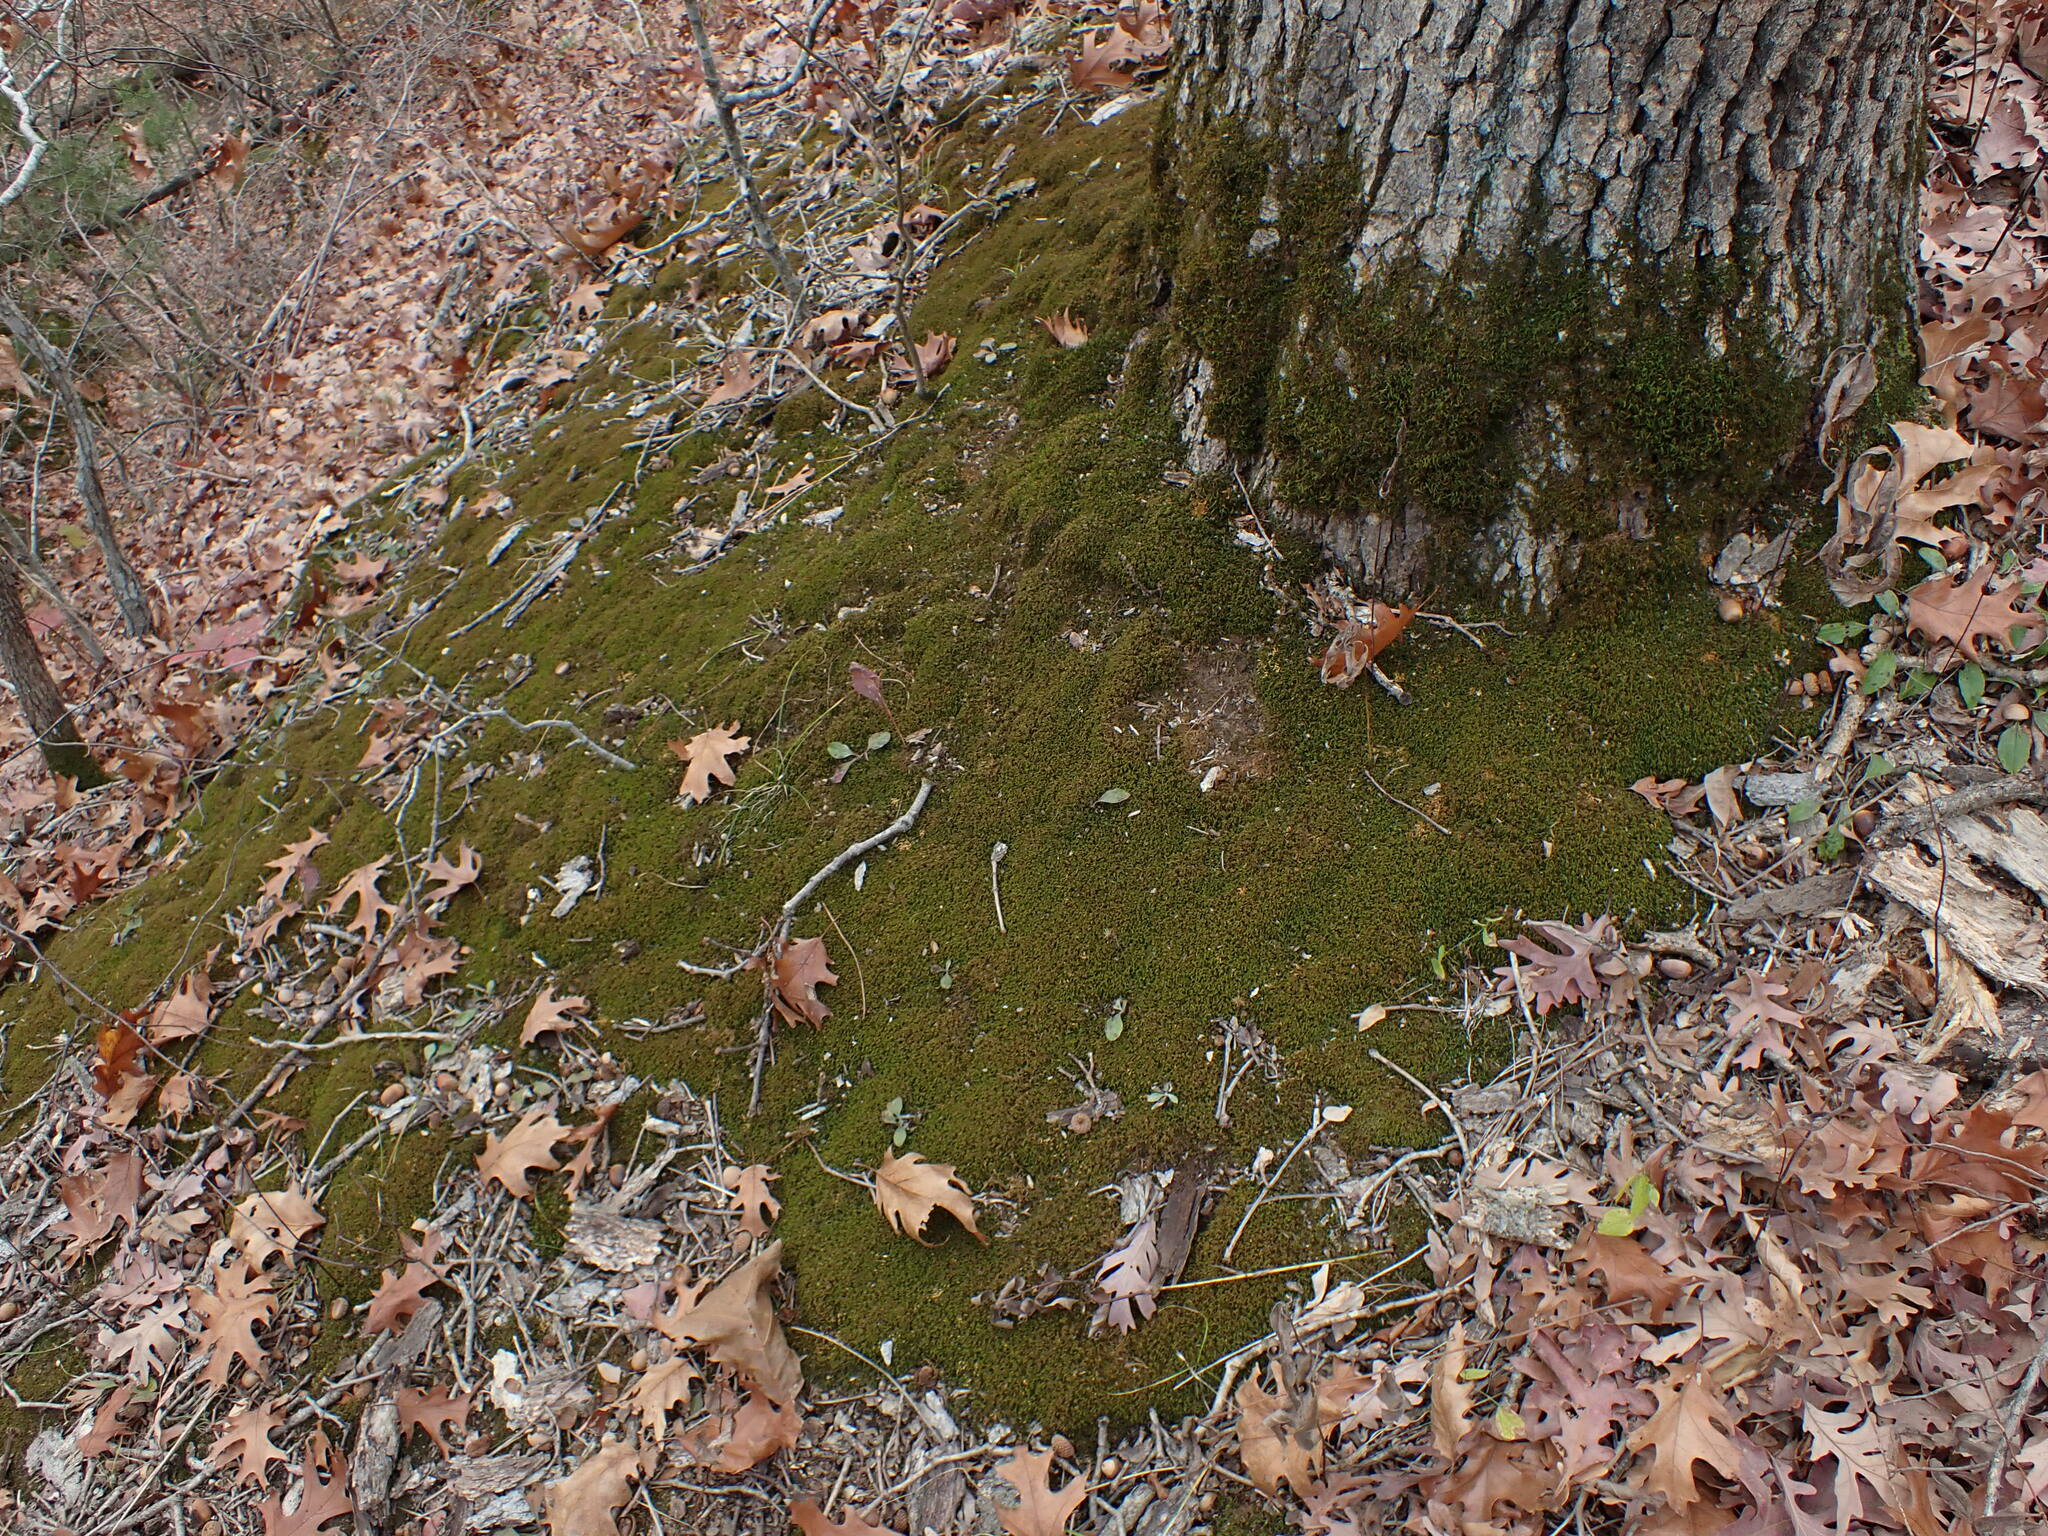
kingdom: Plantae
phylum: Bryophyta
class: Bryopsida
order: Hypnales
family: Neckeraceae
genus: Pseudanomodon
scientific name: Pseudanomodon attenuatus
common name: Tree-skirt moss
